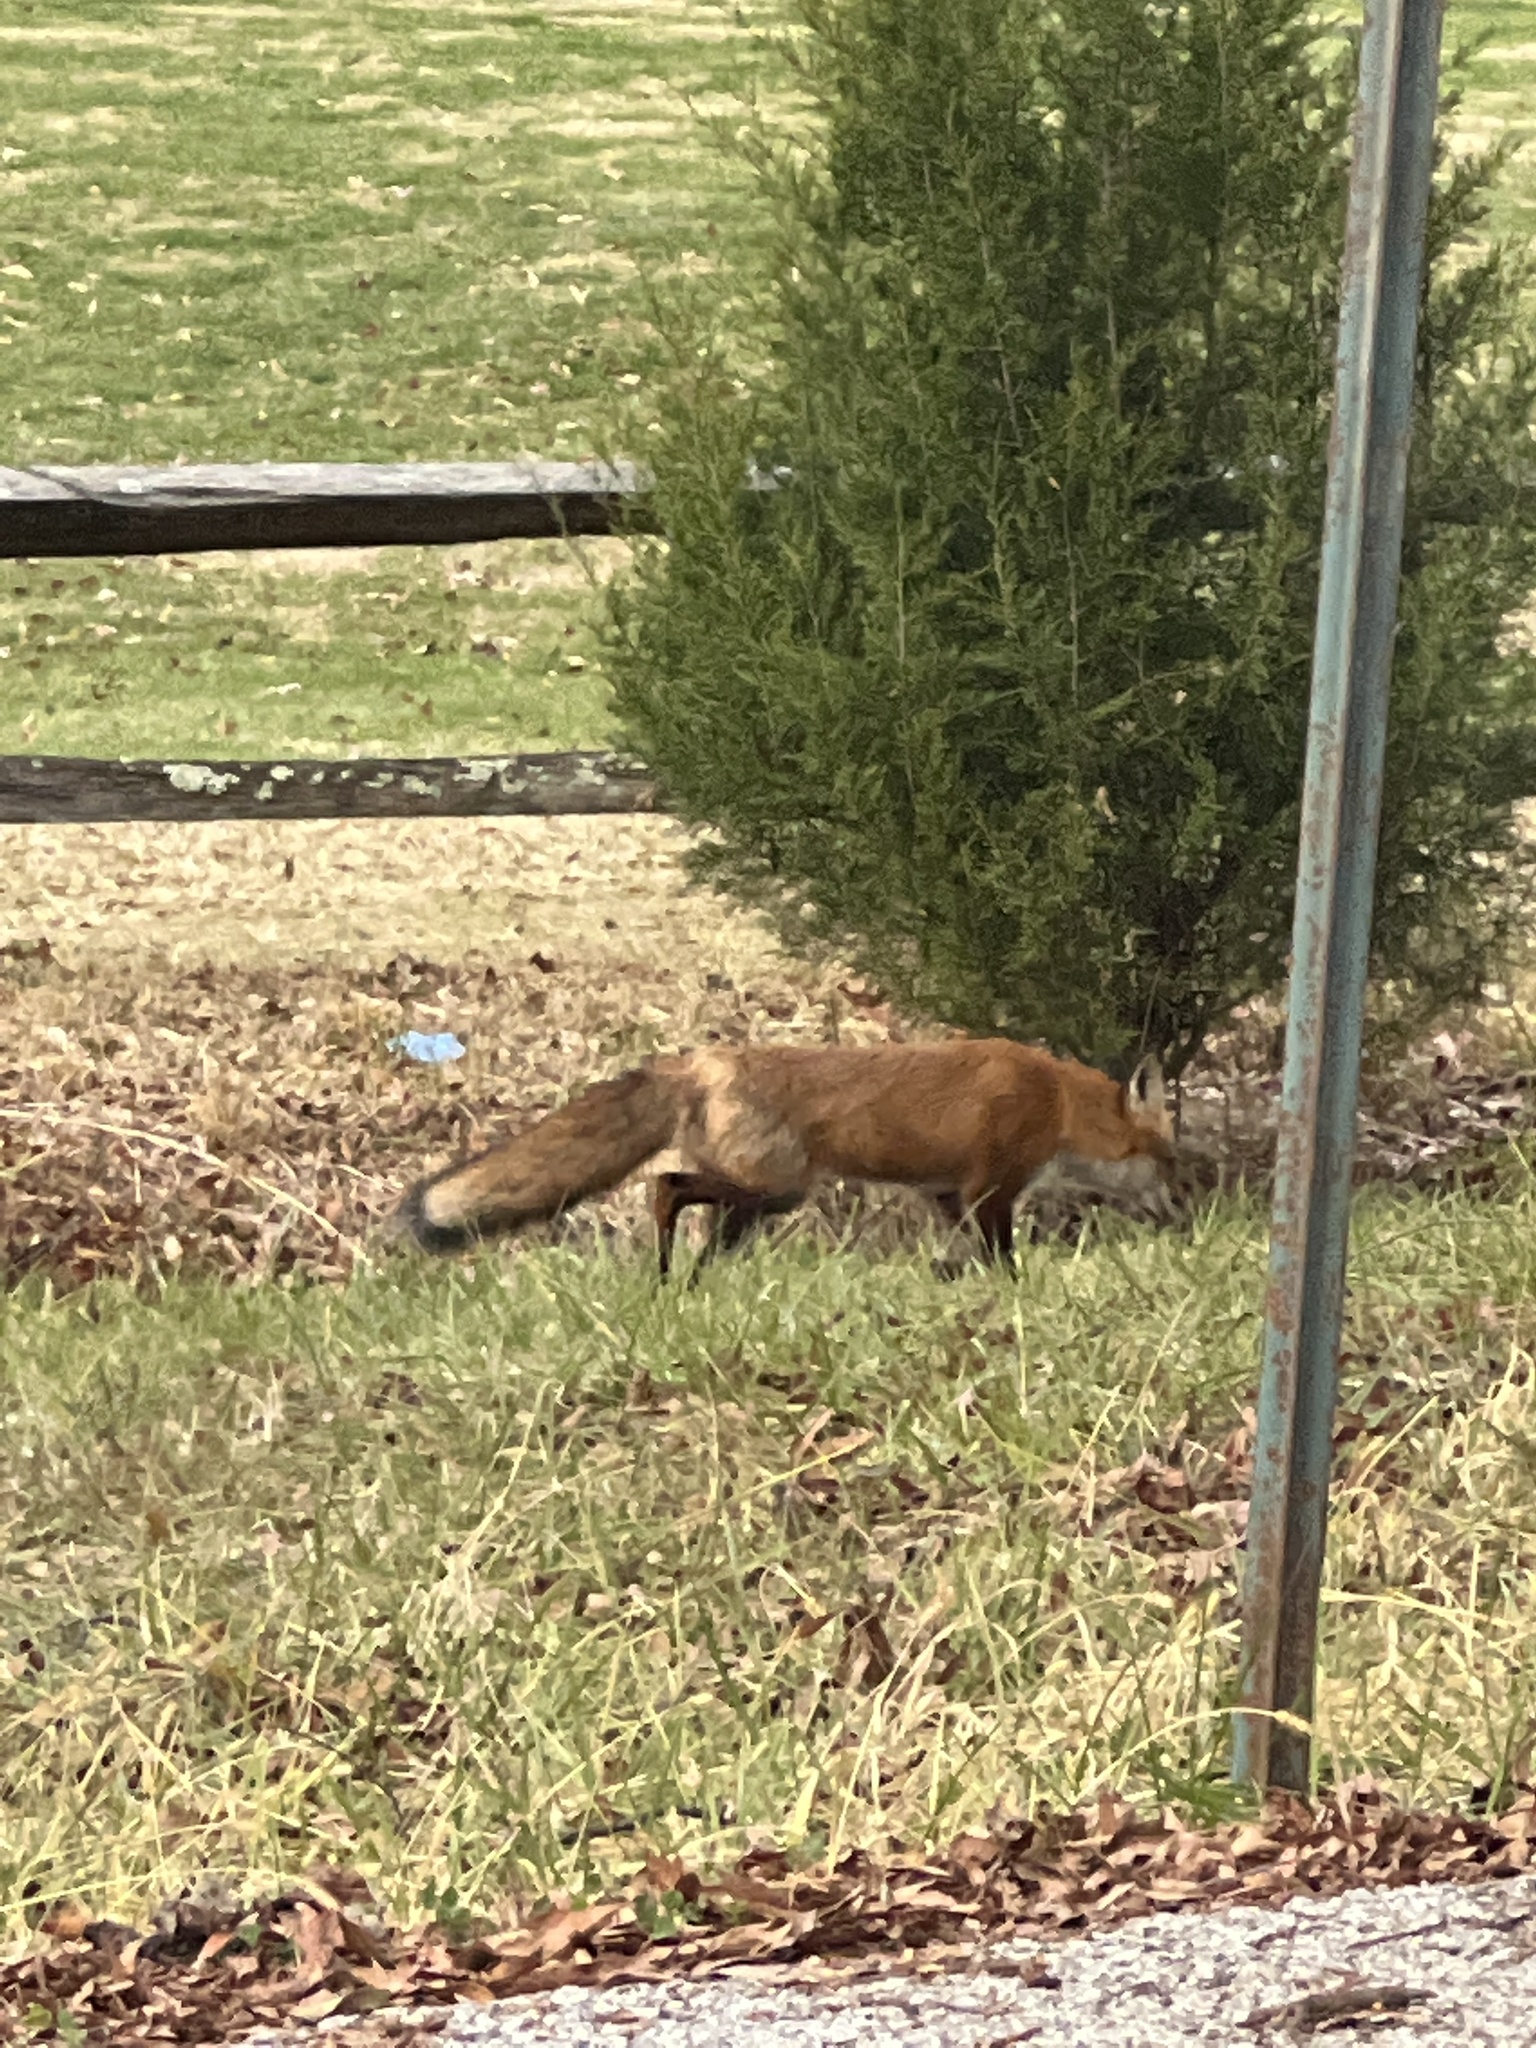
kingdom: Animalia
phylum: Chordata
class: Mammalia
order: Carnivora
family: Canidae
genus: Vulpes
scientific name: Vulpes vulpes
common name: Red fox
